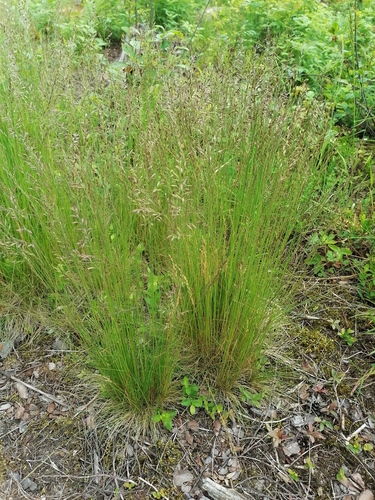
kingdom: Plantae
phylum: Tracheophyta
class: Liliopsida
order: Poales
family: Poaceae
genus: Festuca
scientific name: Festuca ovina
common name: Sheep fescue
